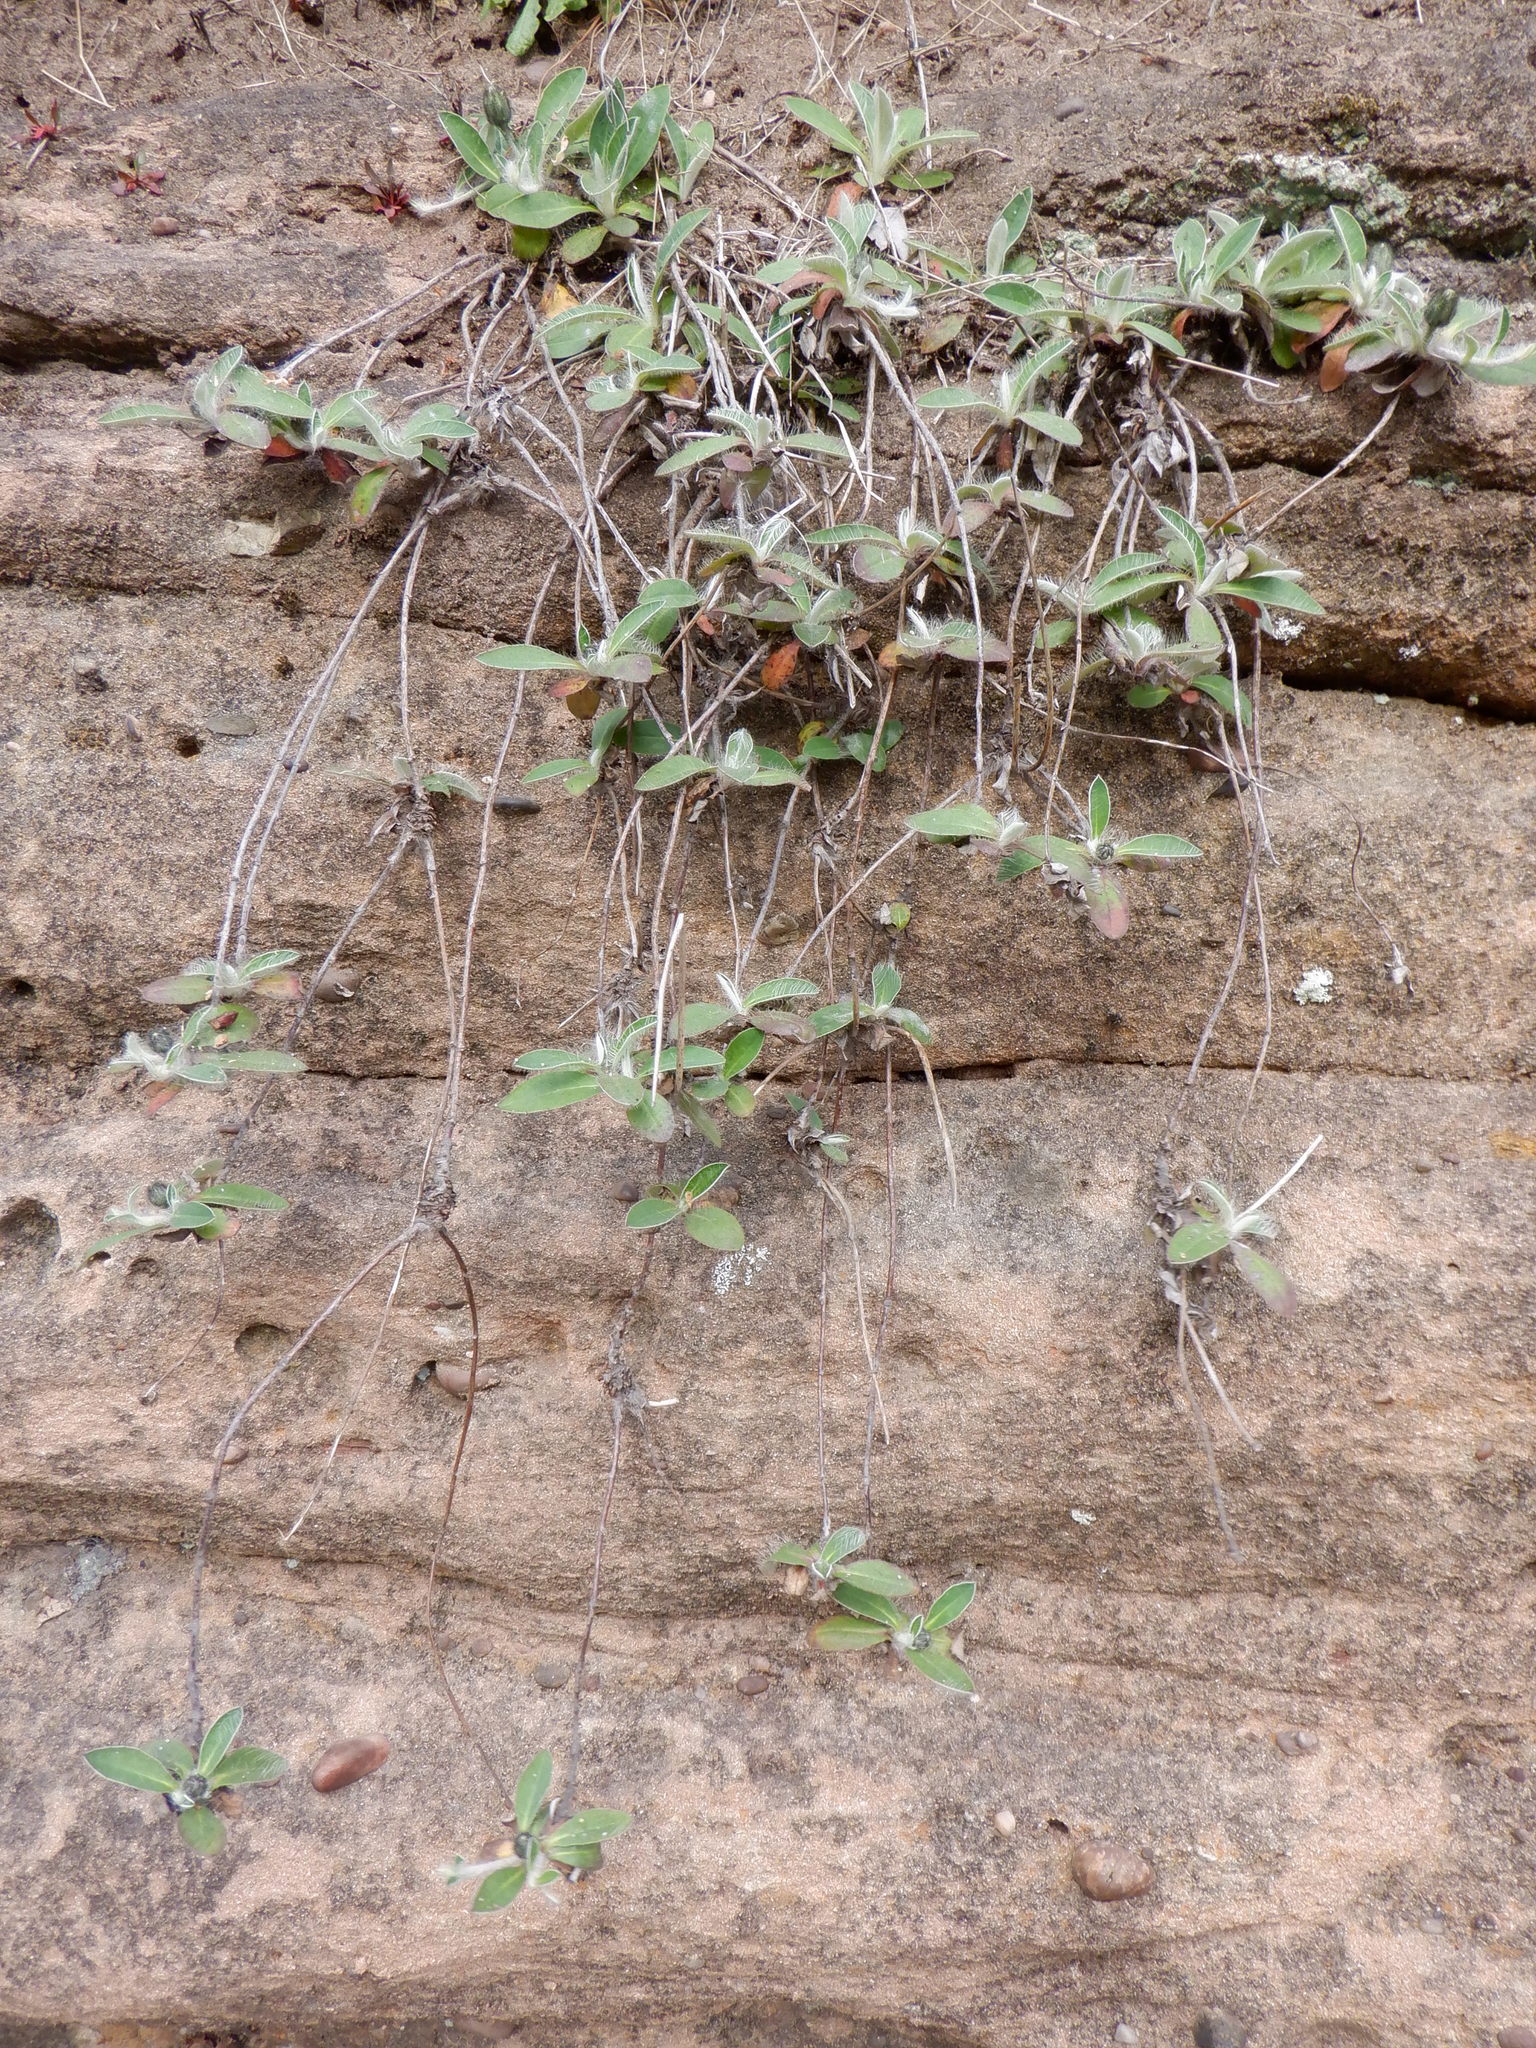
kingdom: Plantae
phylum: Tracheophyta
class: Magnoliopsida
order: Asterales
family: Asteraceae
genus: Pilosella
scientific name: Pilosella officinarum
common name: Mouse-ear hawkweed
